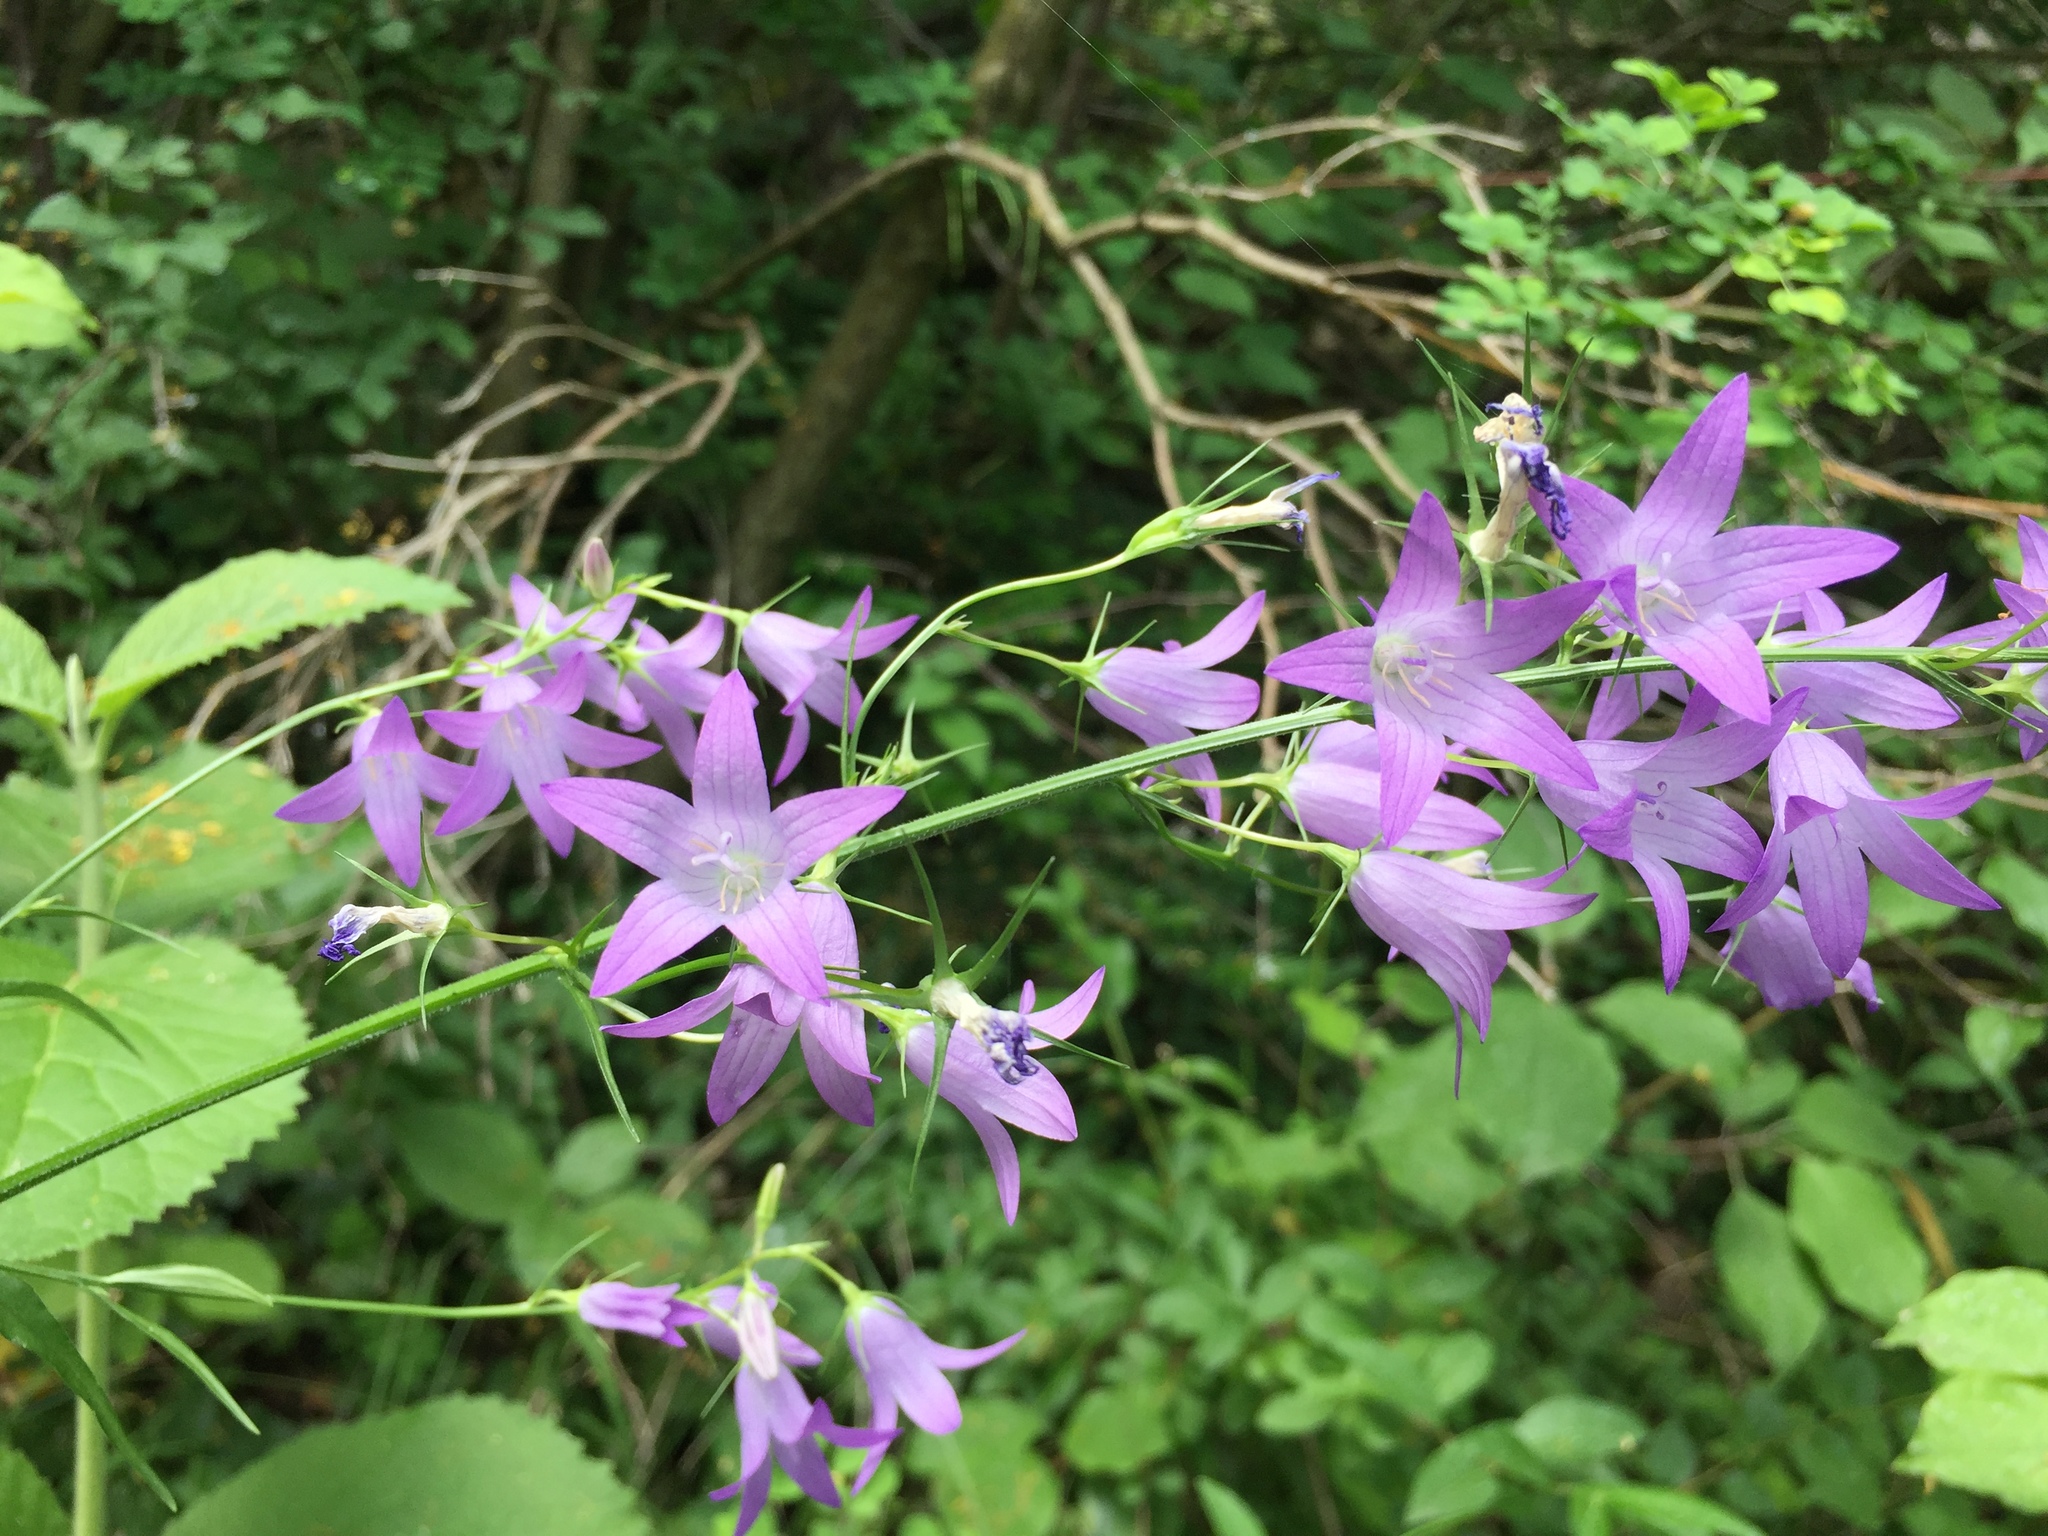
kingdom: Plantae
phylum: Tracheophyta
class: Magnoliopsida
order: Asterales
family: Campanulaceae
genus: Campanula
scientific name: Campanula rapunculus
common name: Rampion bellflower
